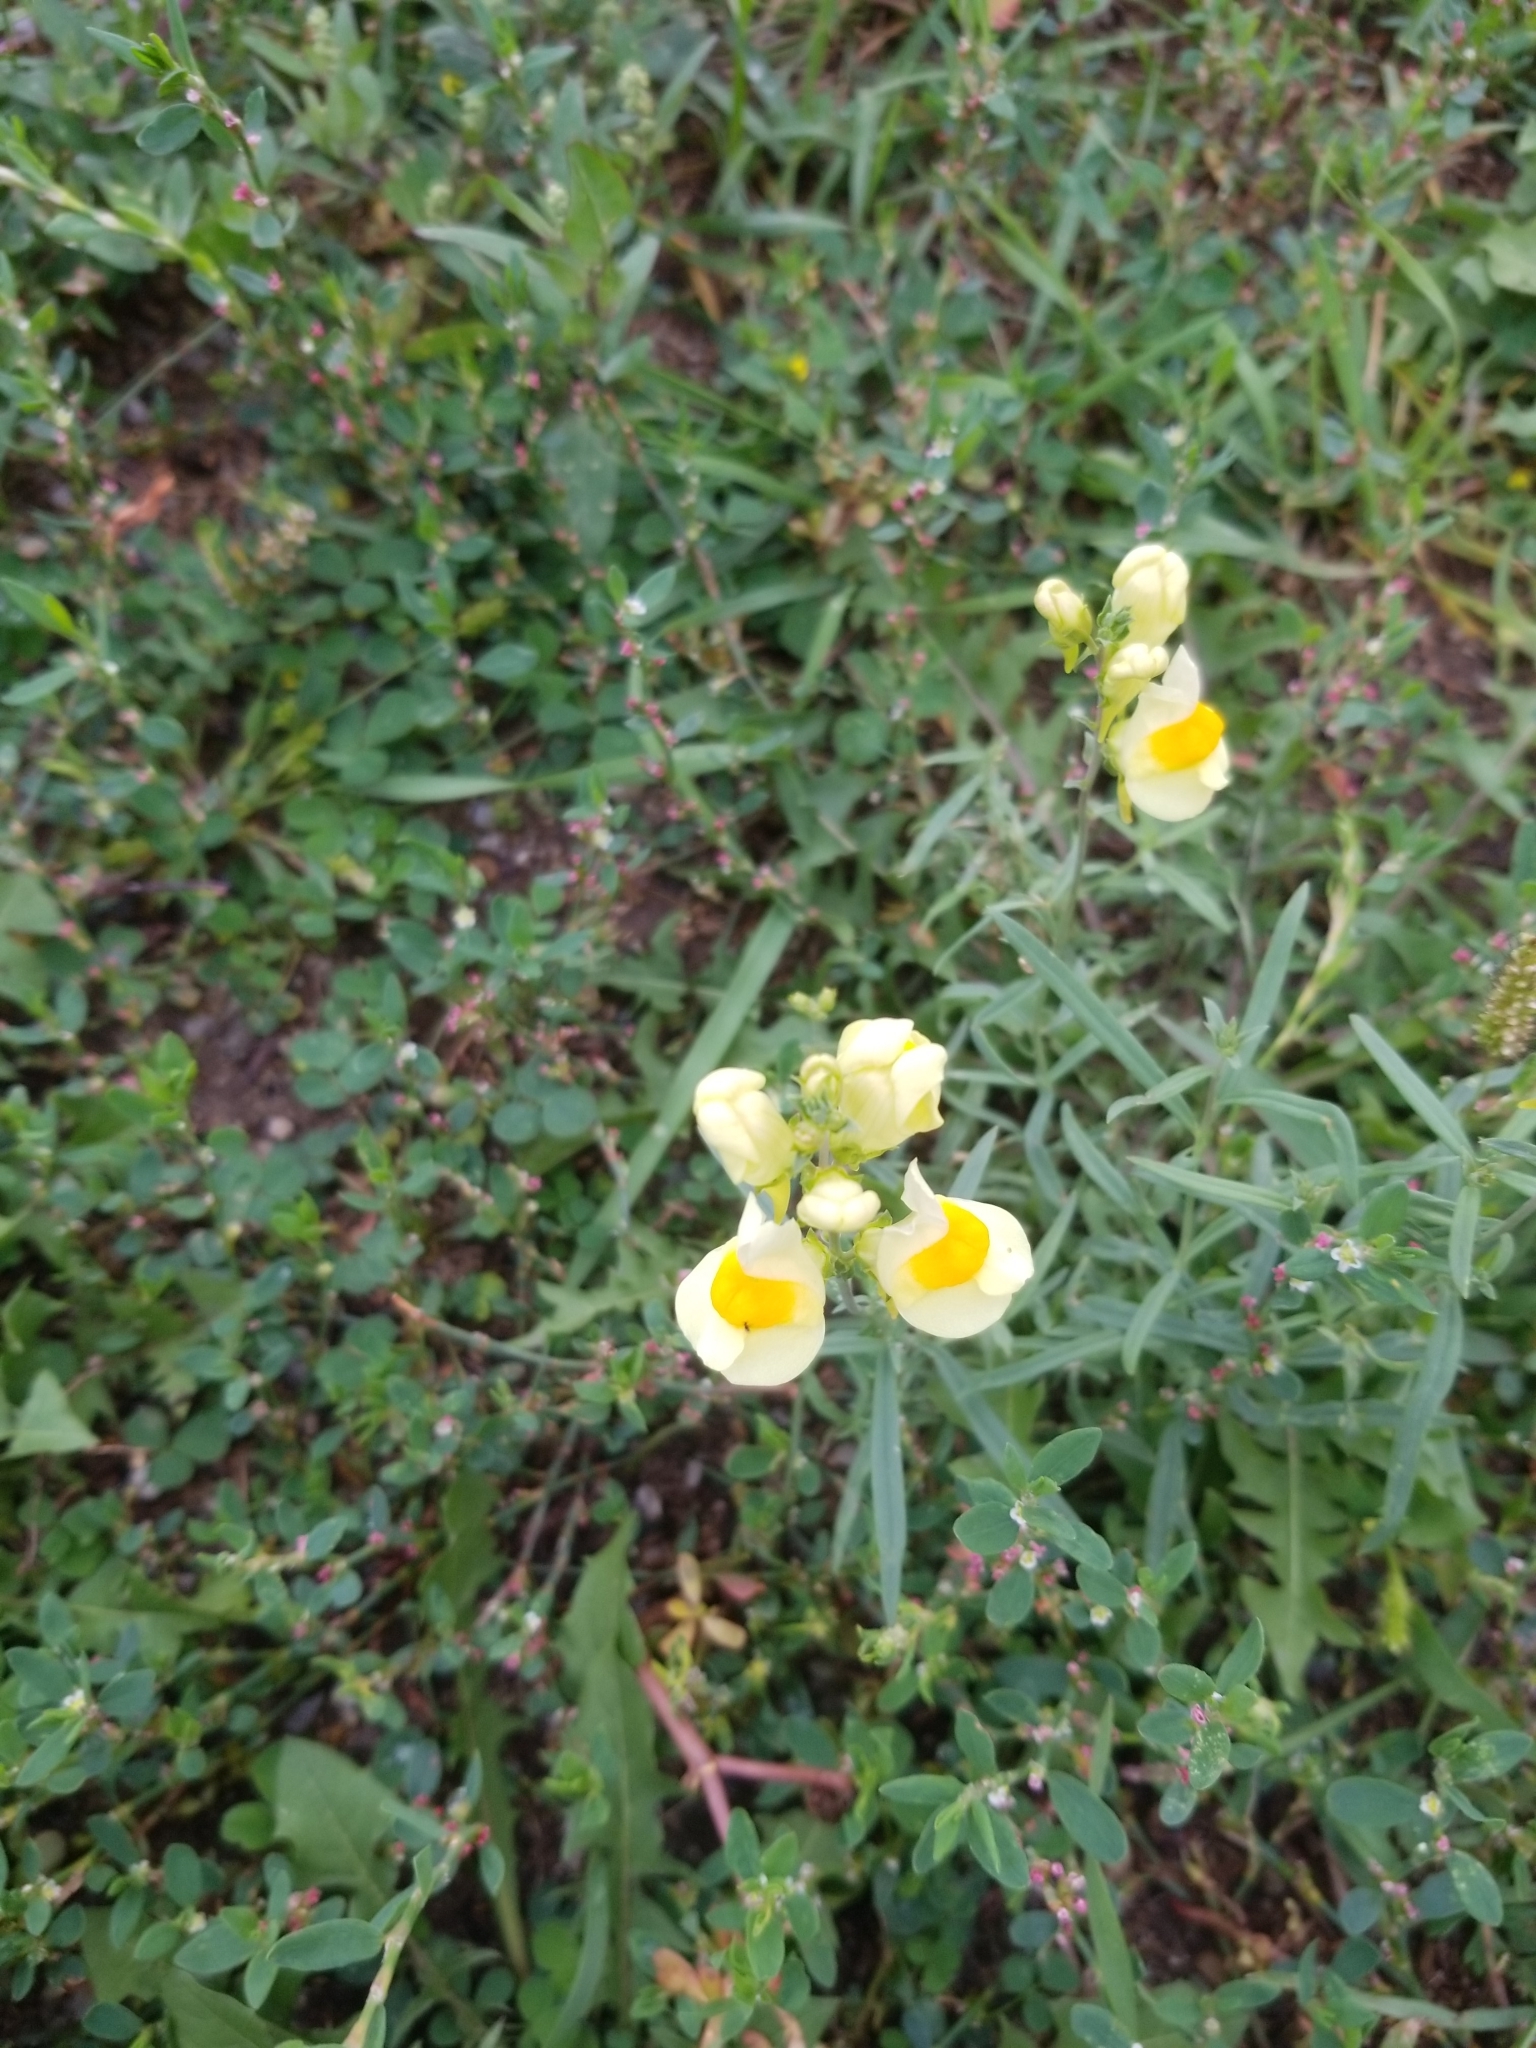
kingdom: Plantae
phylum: Tracheophyta
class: Magnoliopsida
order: Lamiales
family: Plantaginaceae
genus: Linaria
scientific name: Linaria vulgaris
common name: Butter and eggs
